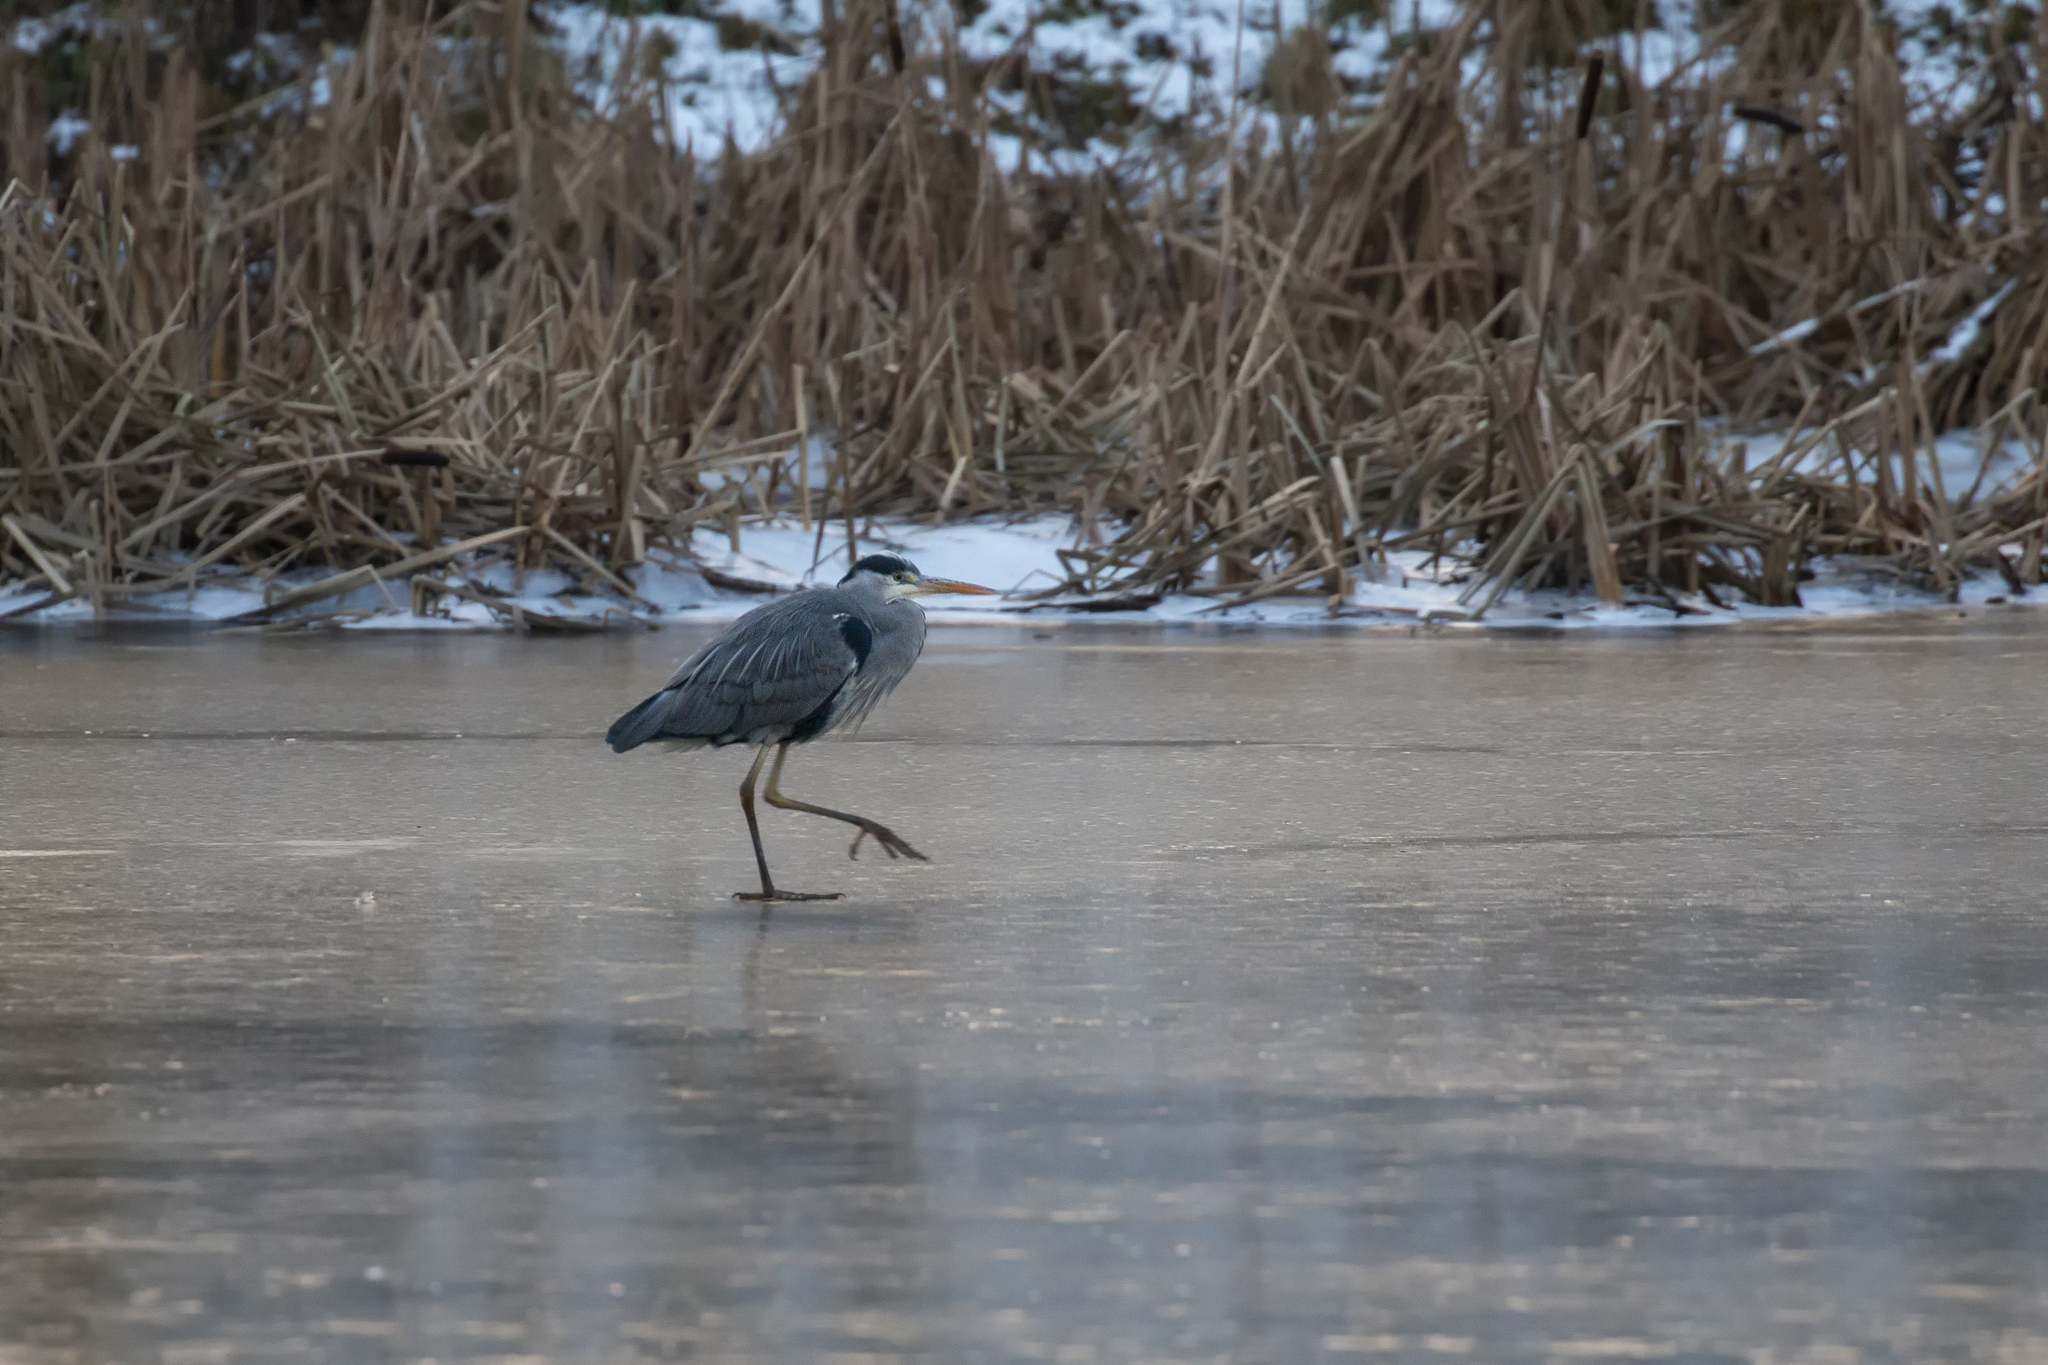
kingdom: Animalia
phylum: Chordata
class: Aves
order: Pelecaniformes
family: Ardeidae
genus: Ardea
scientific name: Ardea cinerea
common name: Grey heron
